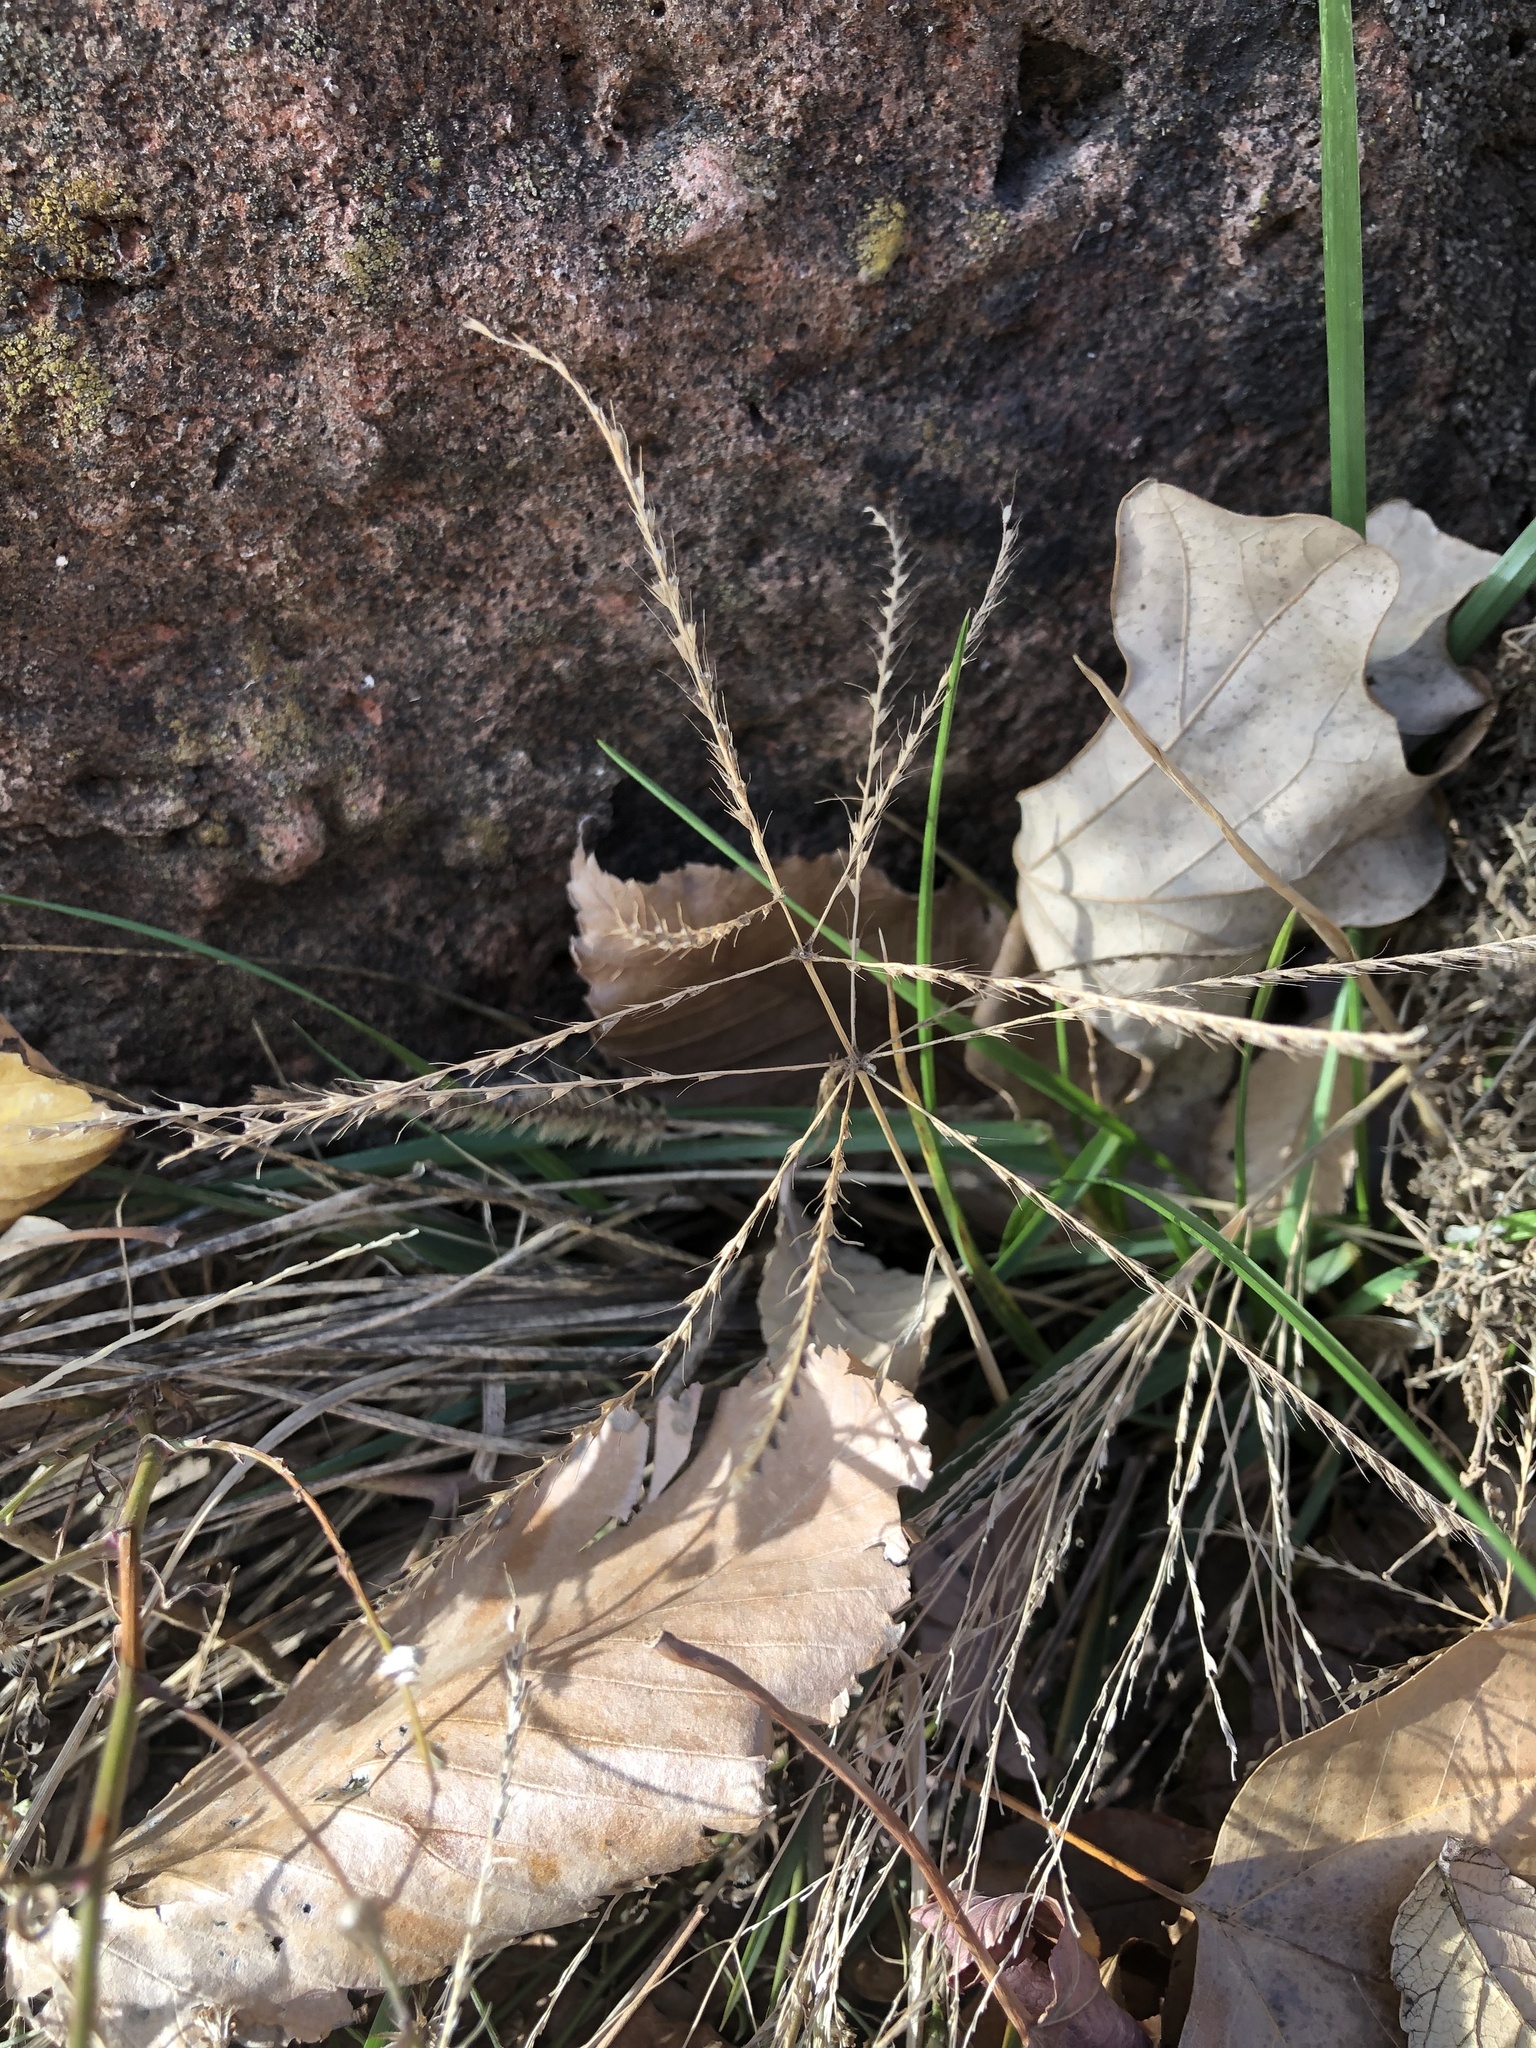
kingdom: Plantae
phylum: Tracheophyta
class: Liliopsida
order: Poales
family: Poaceae
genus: Chloris
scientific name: Chloris verticillata
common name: Tumble windmill grass
